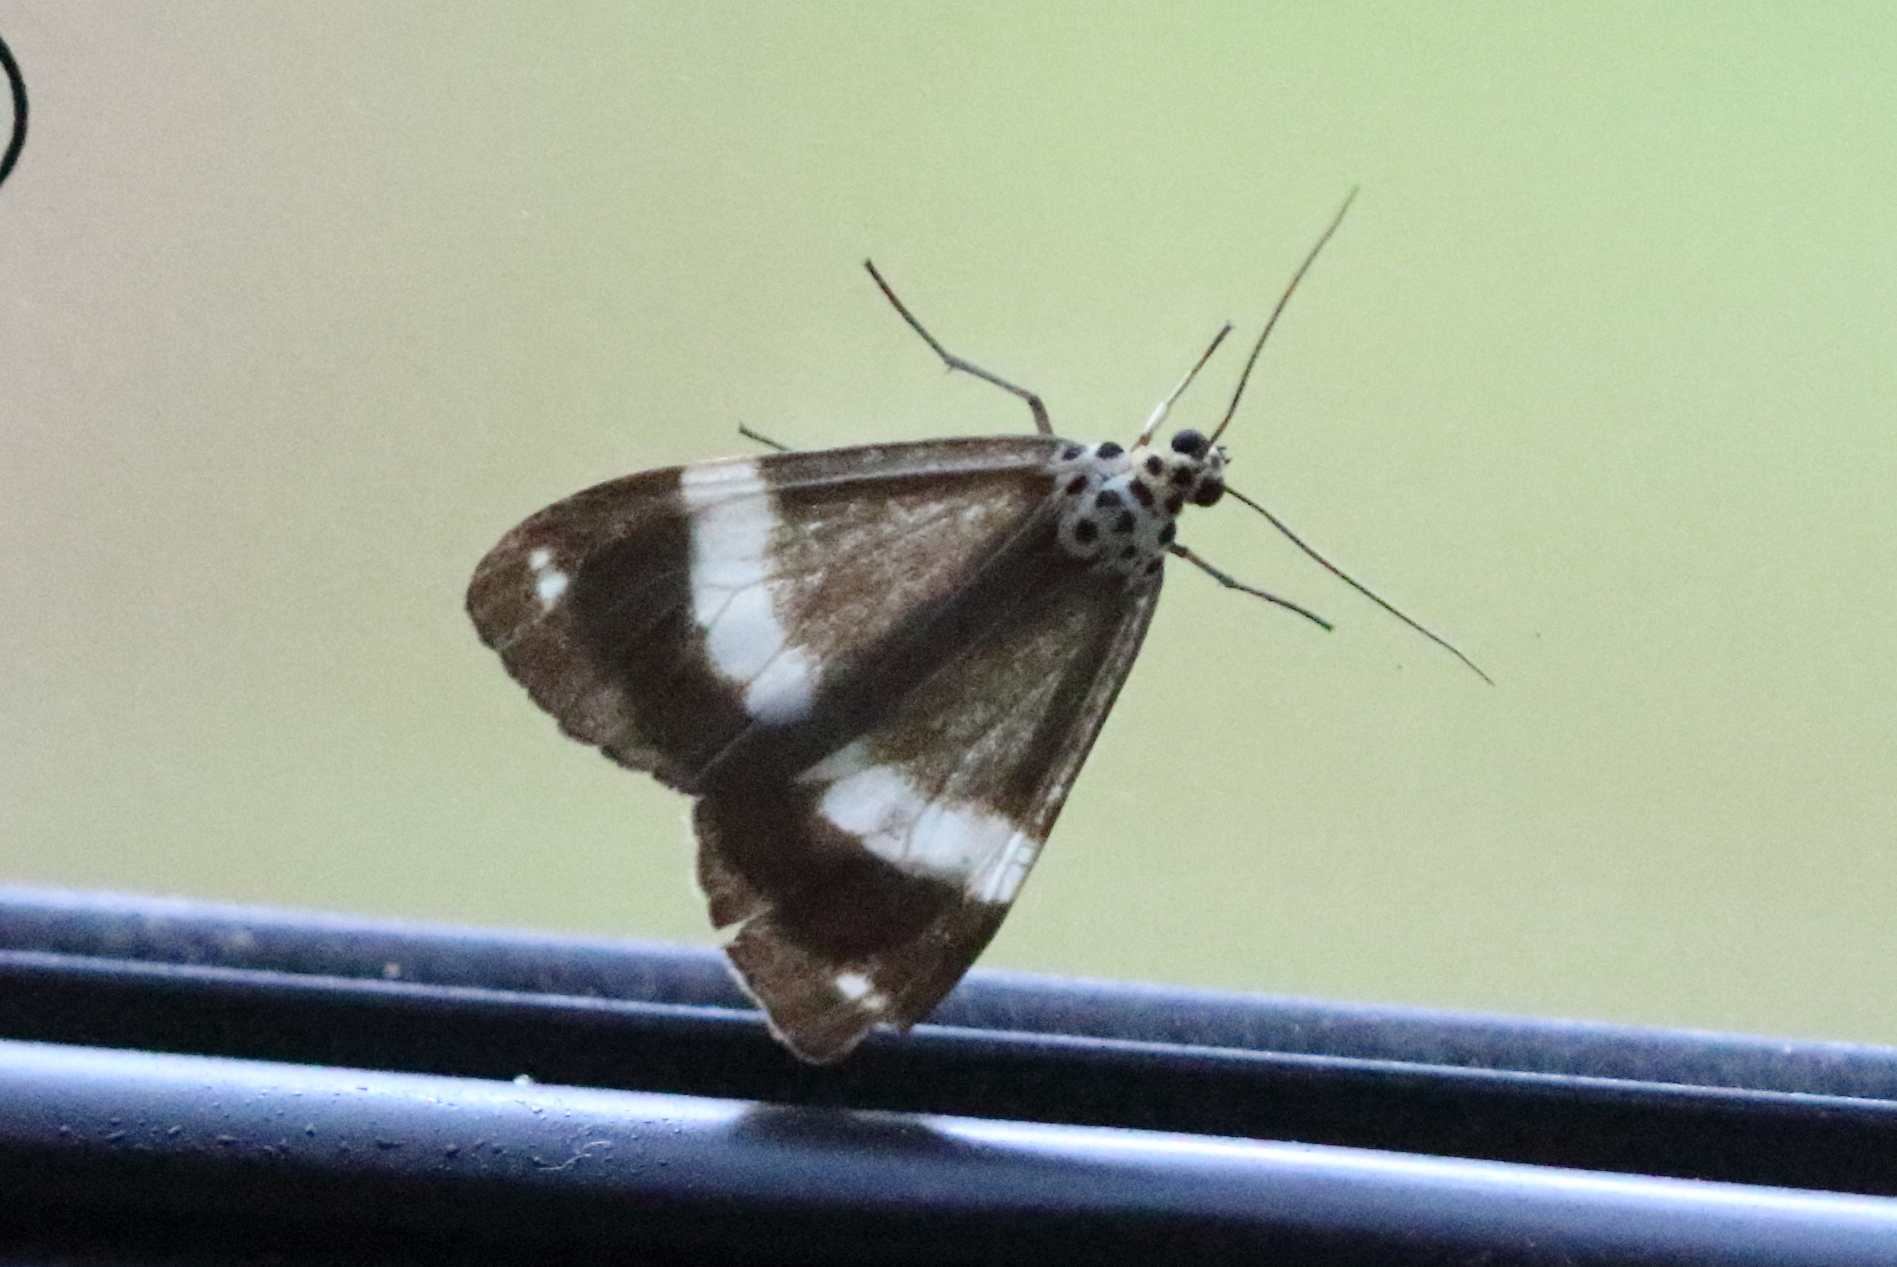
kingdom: Animalia
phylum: Arthropoda
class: Insecta
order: Lepidoptera
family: Erebidae
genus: Utetheisa
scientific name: Utetheisa aegrotum
